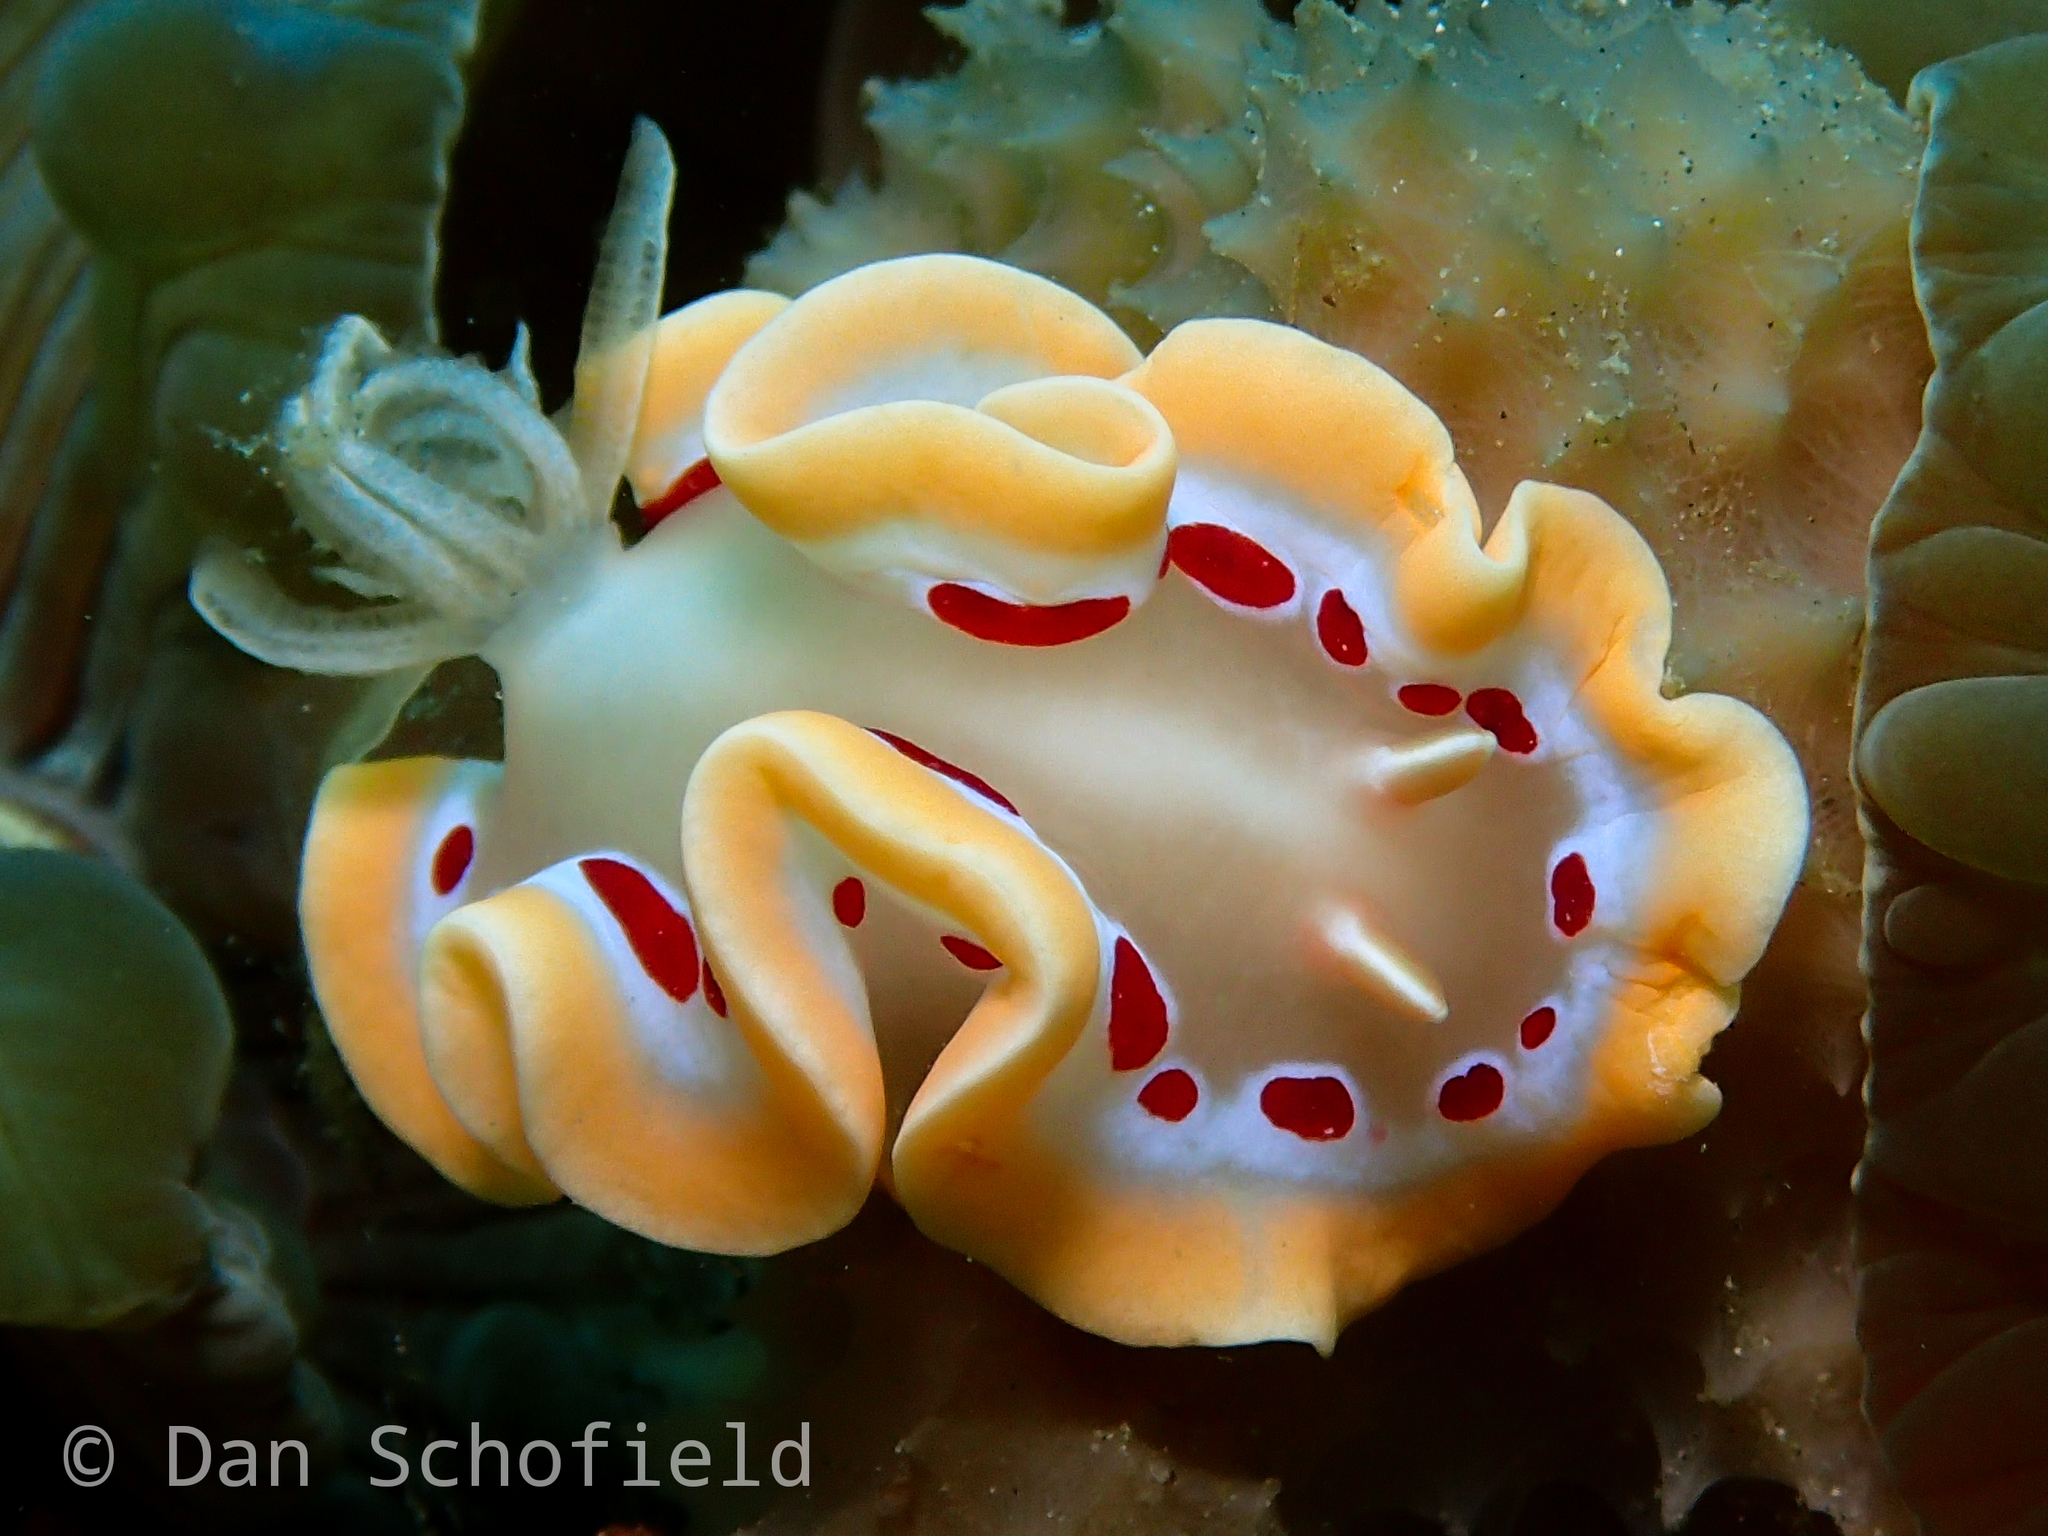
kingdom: Animalia
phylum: Mollusca
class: Gastropoda
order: Nudibranchia
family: Chromodorididae
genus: Ardeadoris
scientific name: Ardeadoris cruenta
